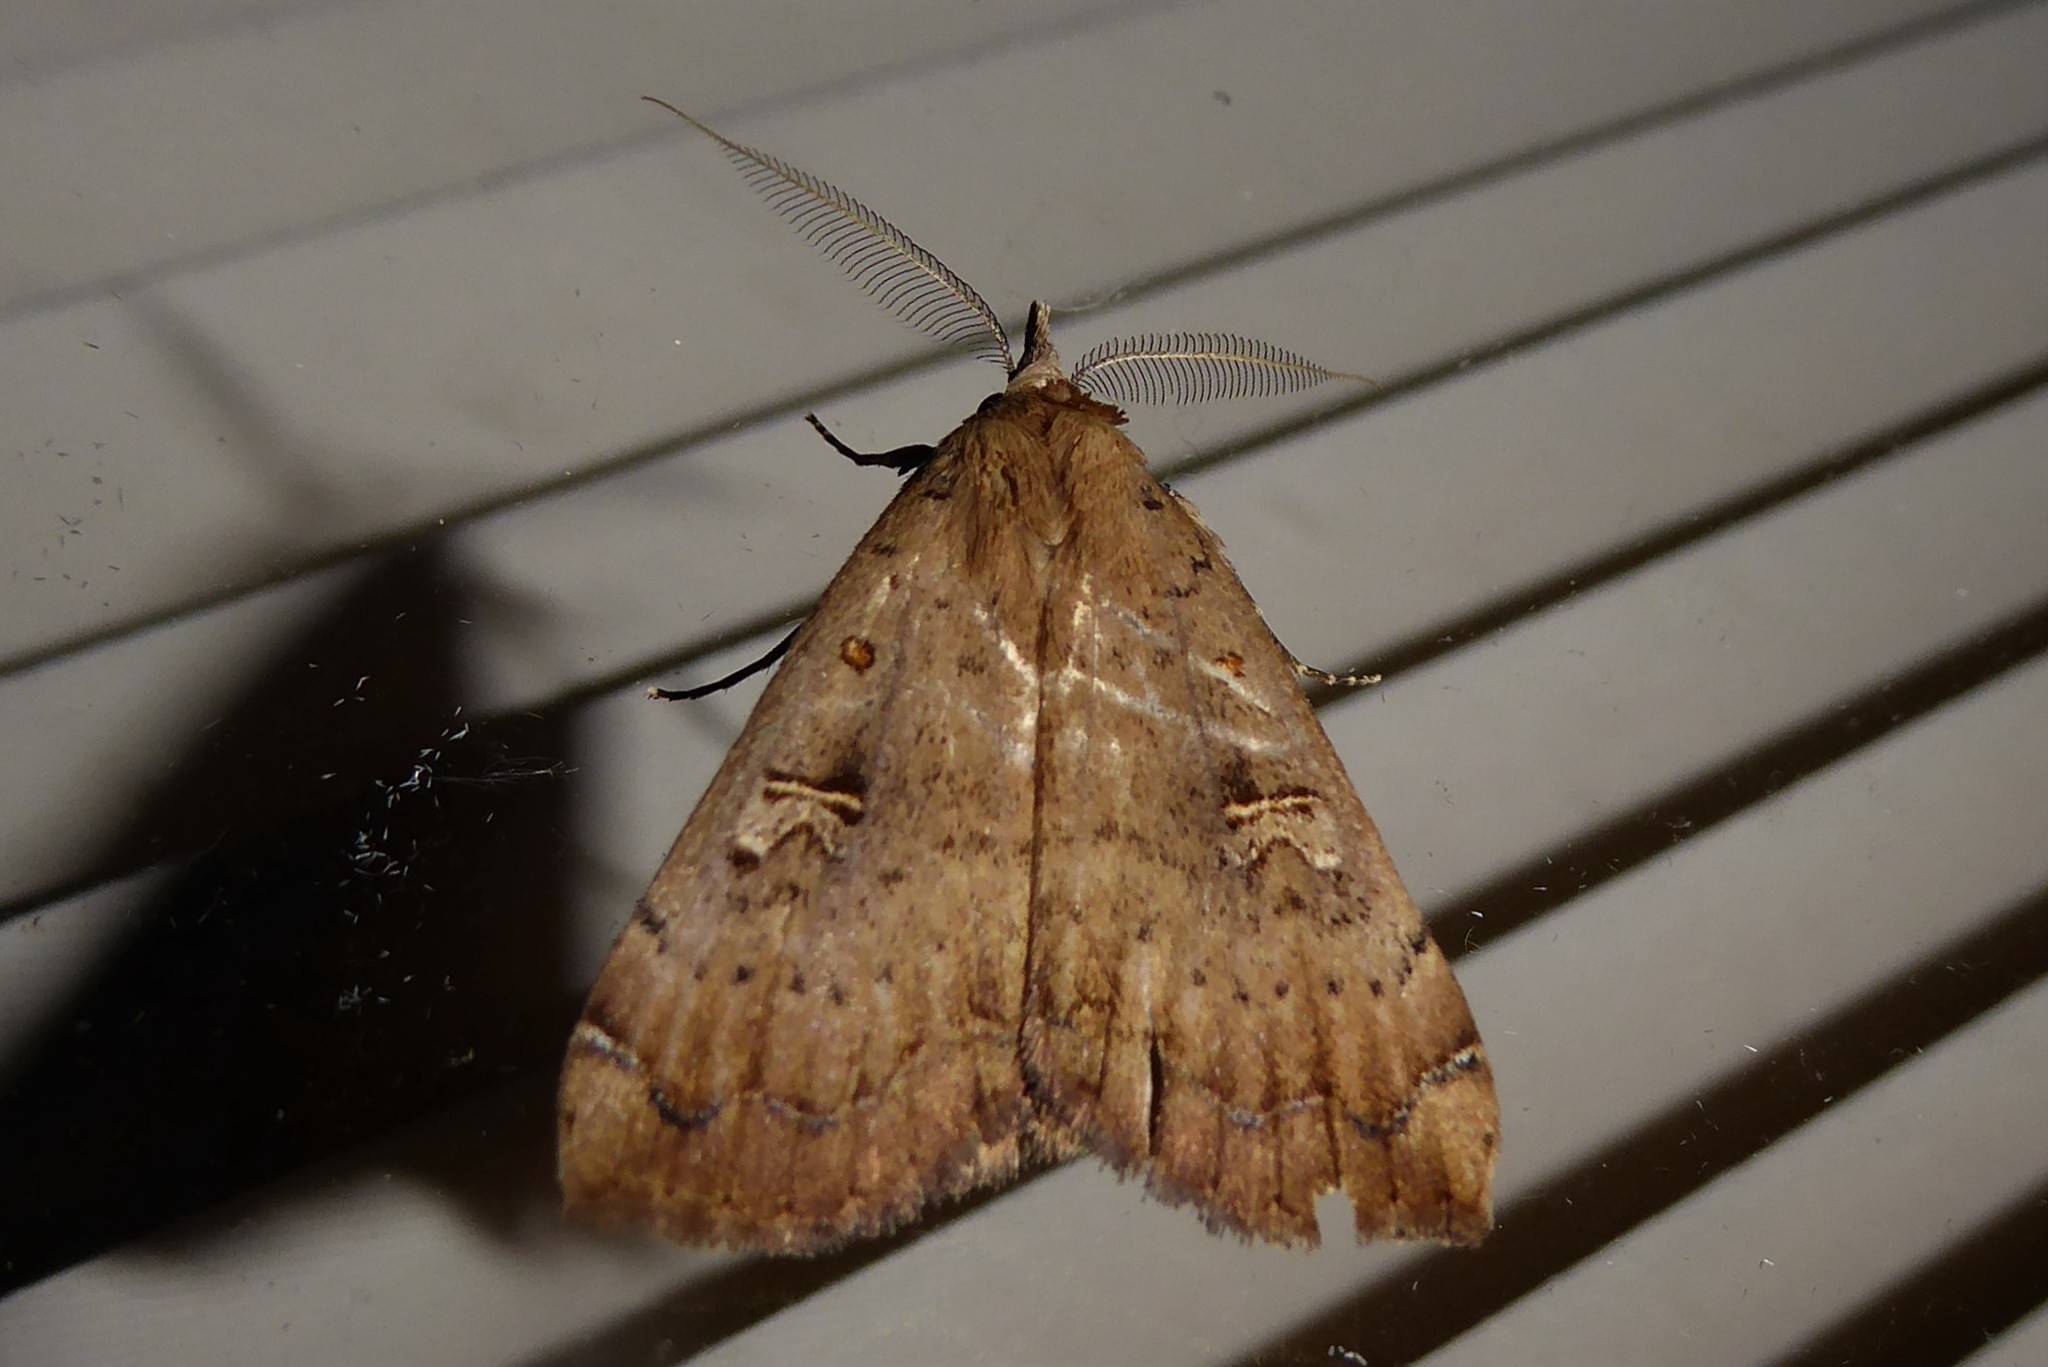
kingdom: Animalia
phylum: Arthropoda
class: Insecta
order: Lepidoptera
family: Erebidae
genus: Rhapsa
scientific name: Rhapsa scotosialis
